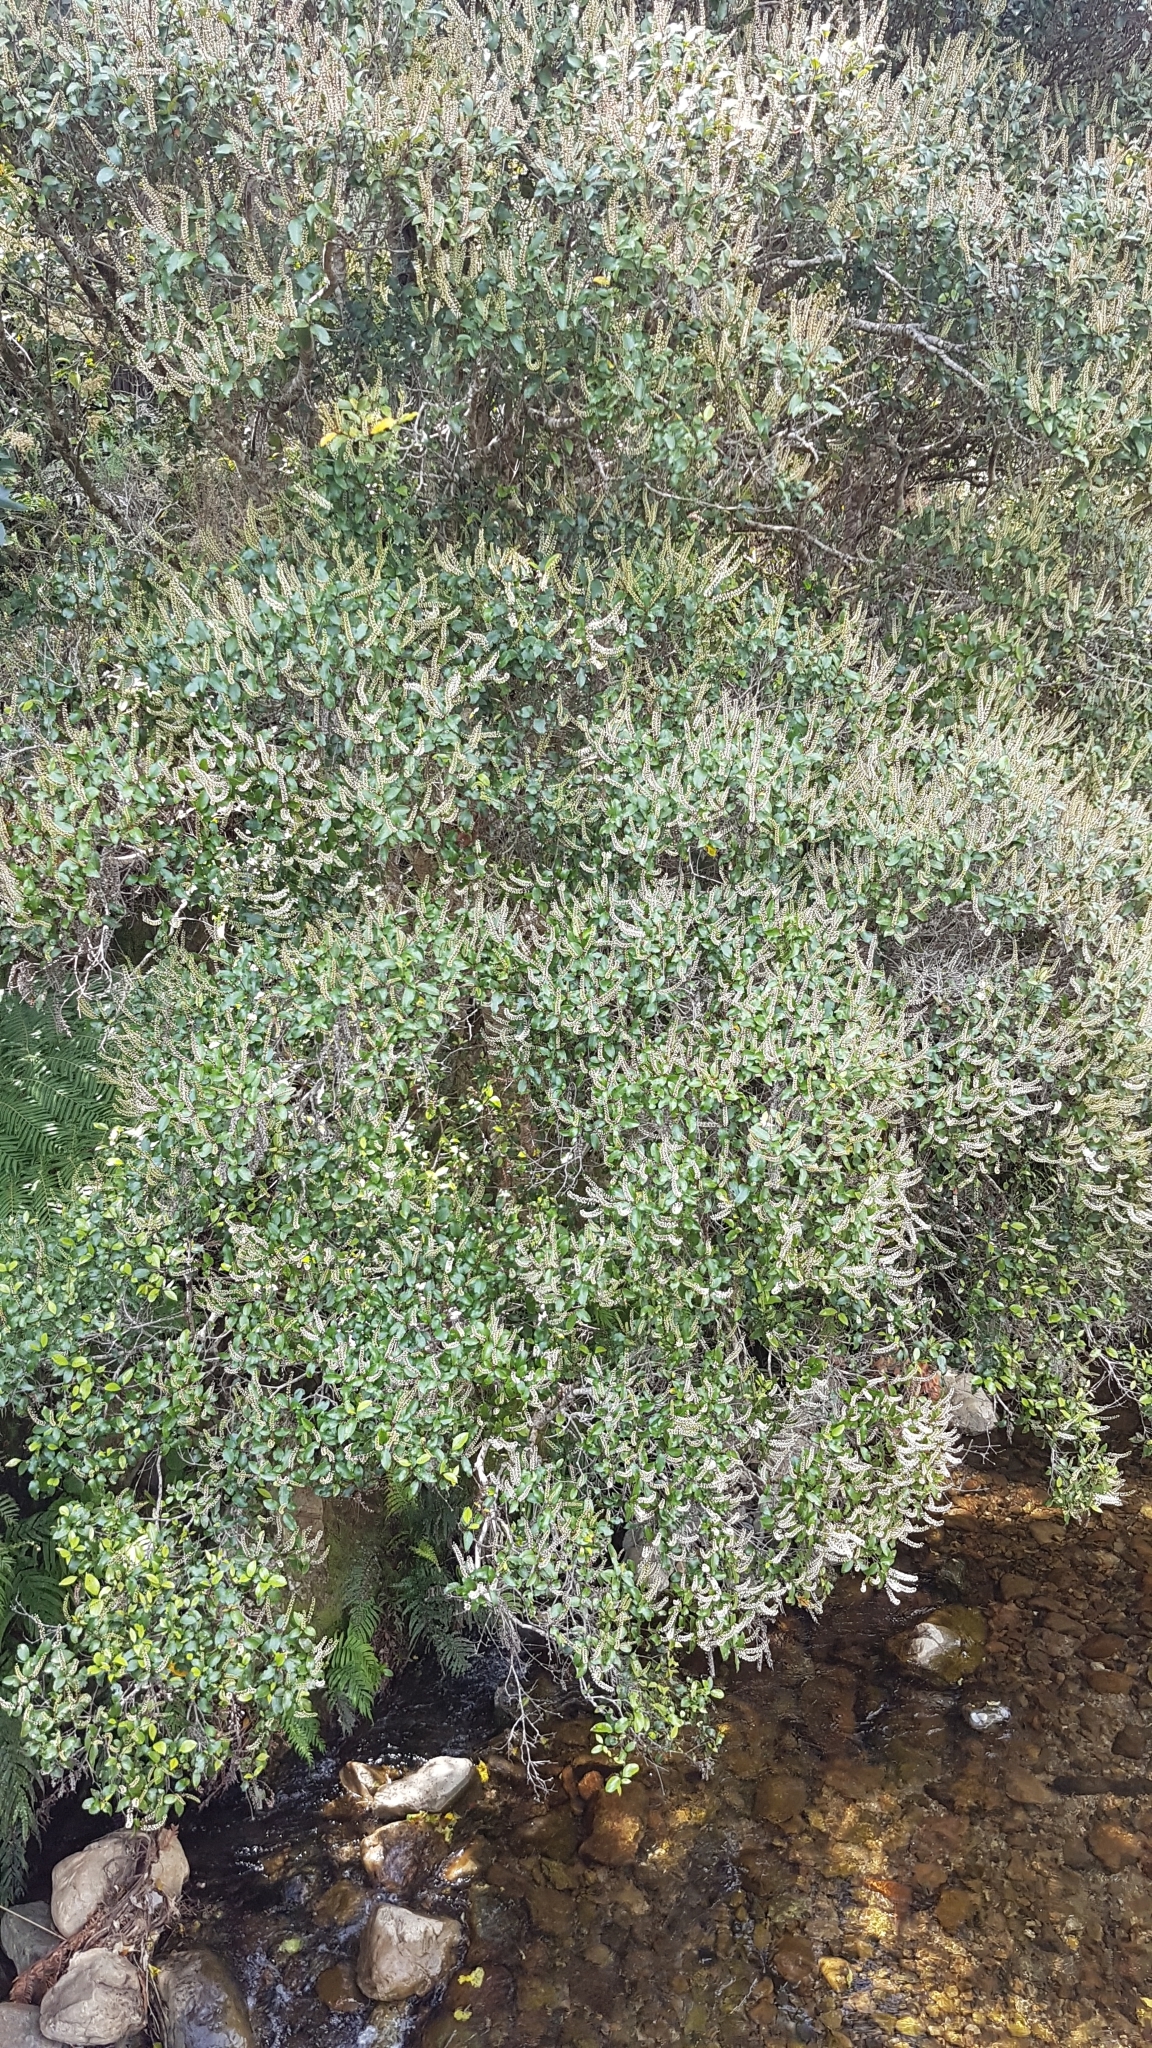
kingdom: Plantae
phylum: Tracheophyta
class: Magnoliopsida
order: Oxalidales
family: Cunoniaceae
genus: Pterophylla
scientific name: Pterophylla racemosa
